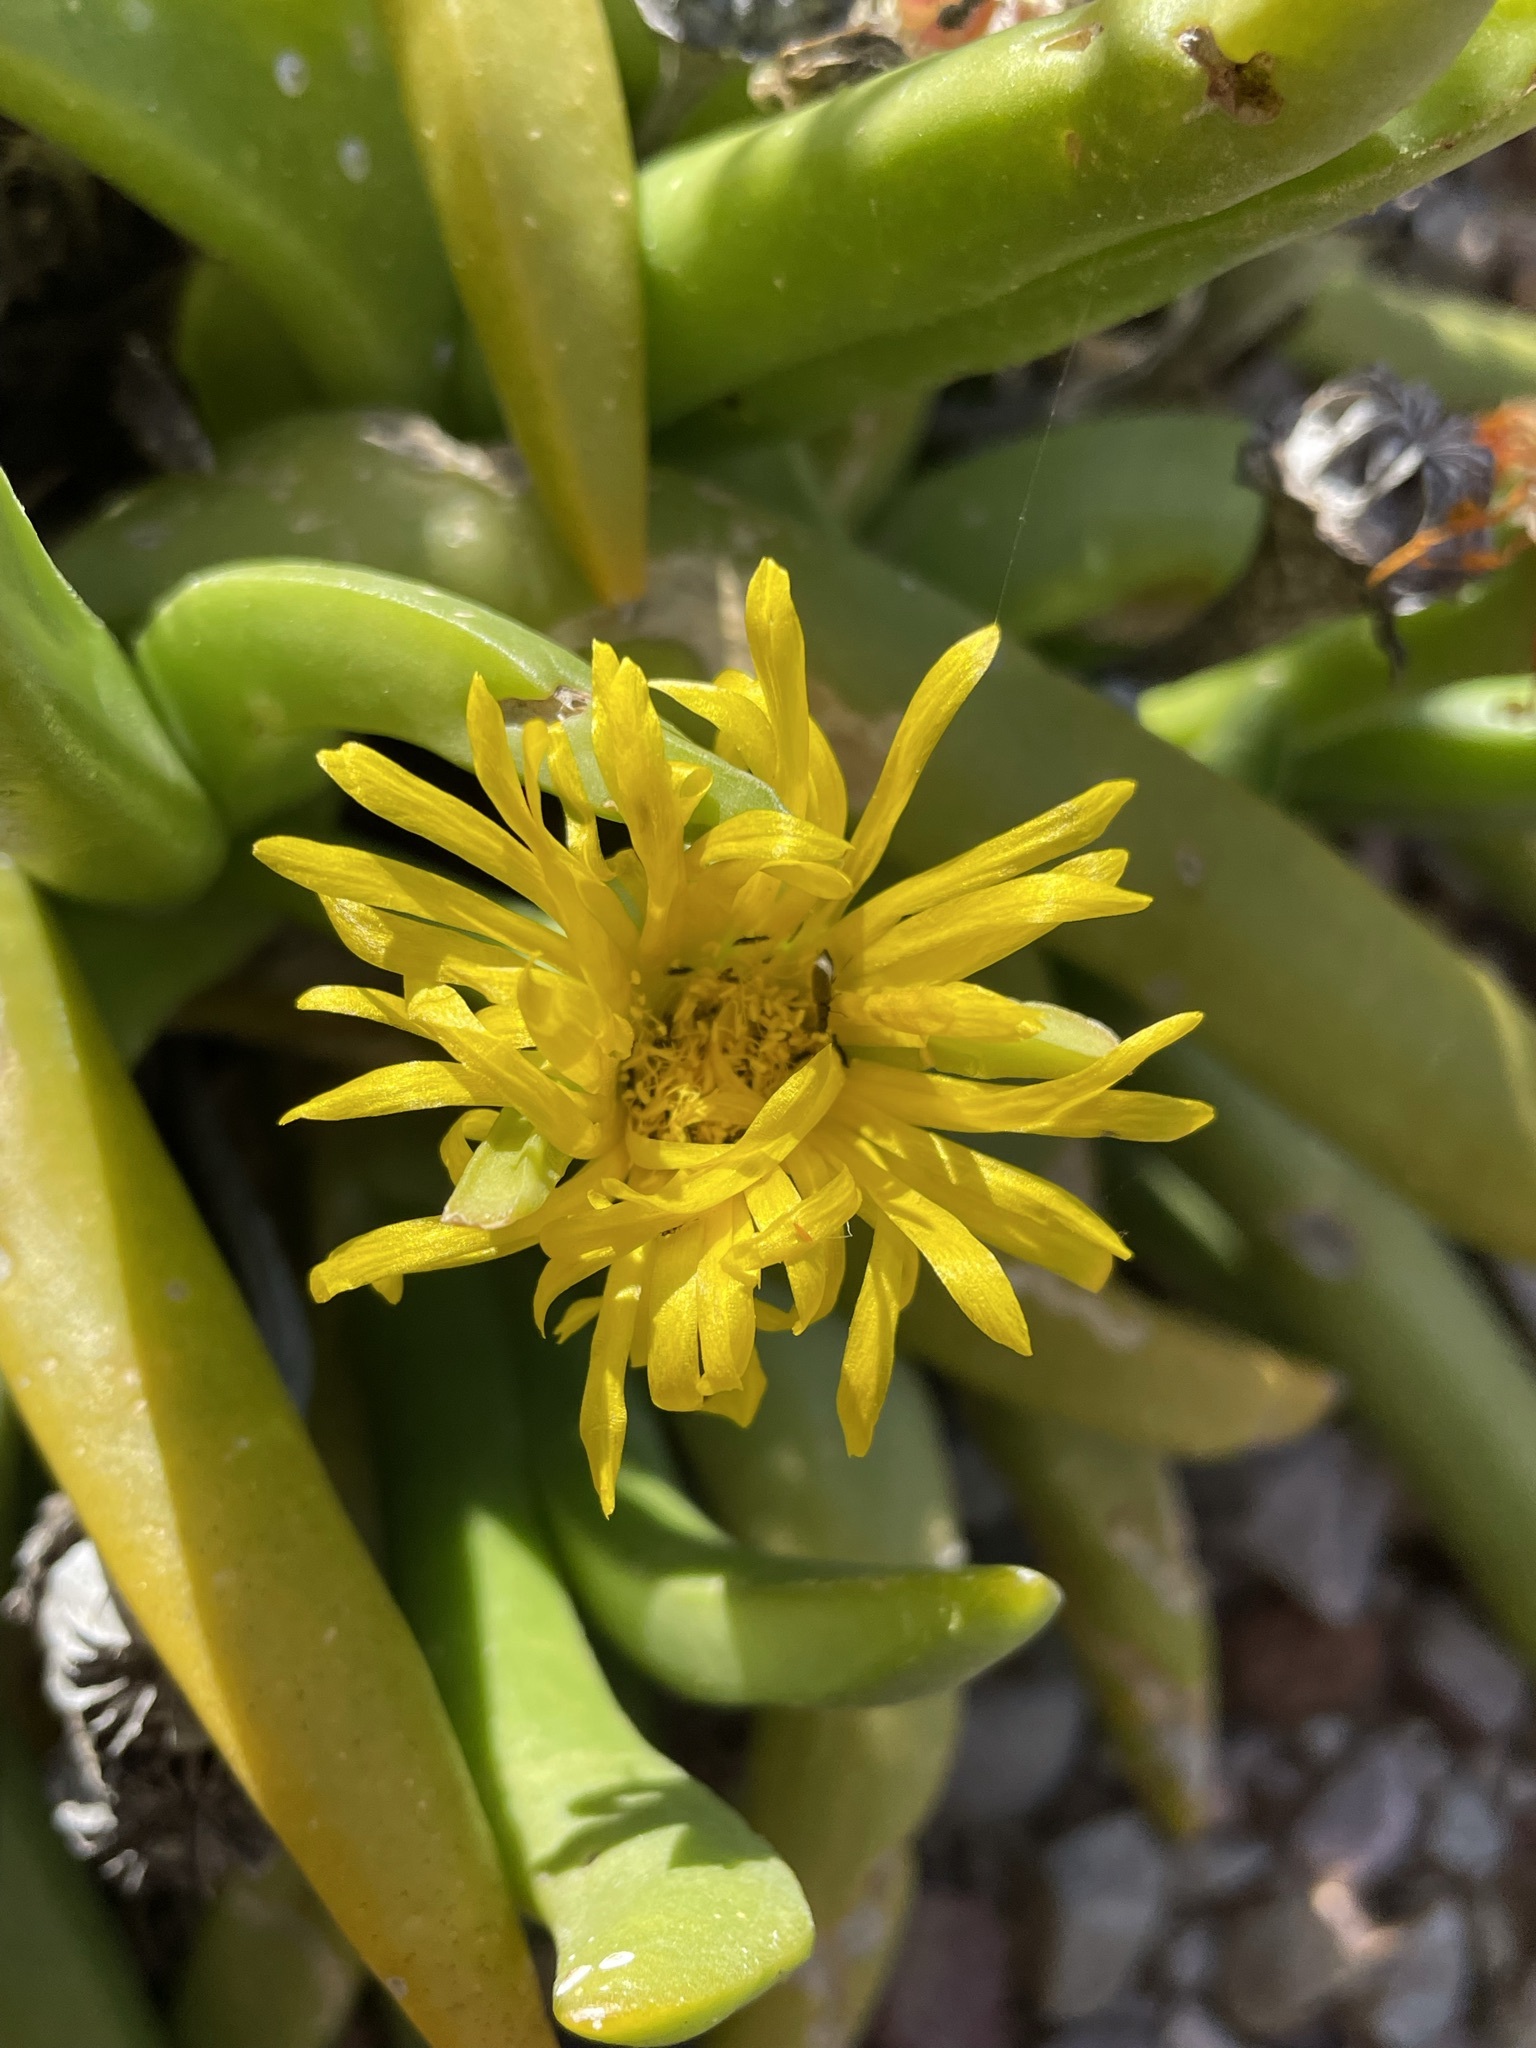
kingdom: Plantae
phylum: Tracheophyta
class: Magnoliopsida
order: Caryophyllales
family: Aizoaceae
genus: Glottiphyllum
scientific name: Glottiphyllum regium
